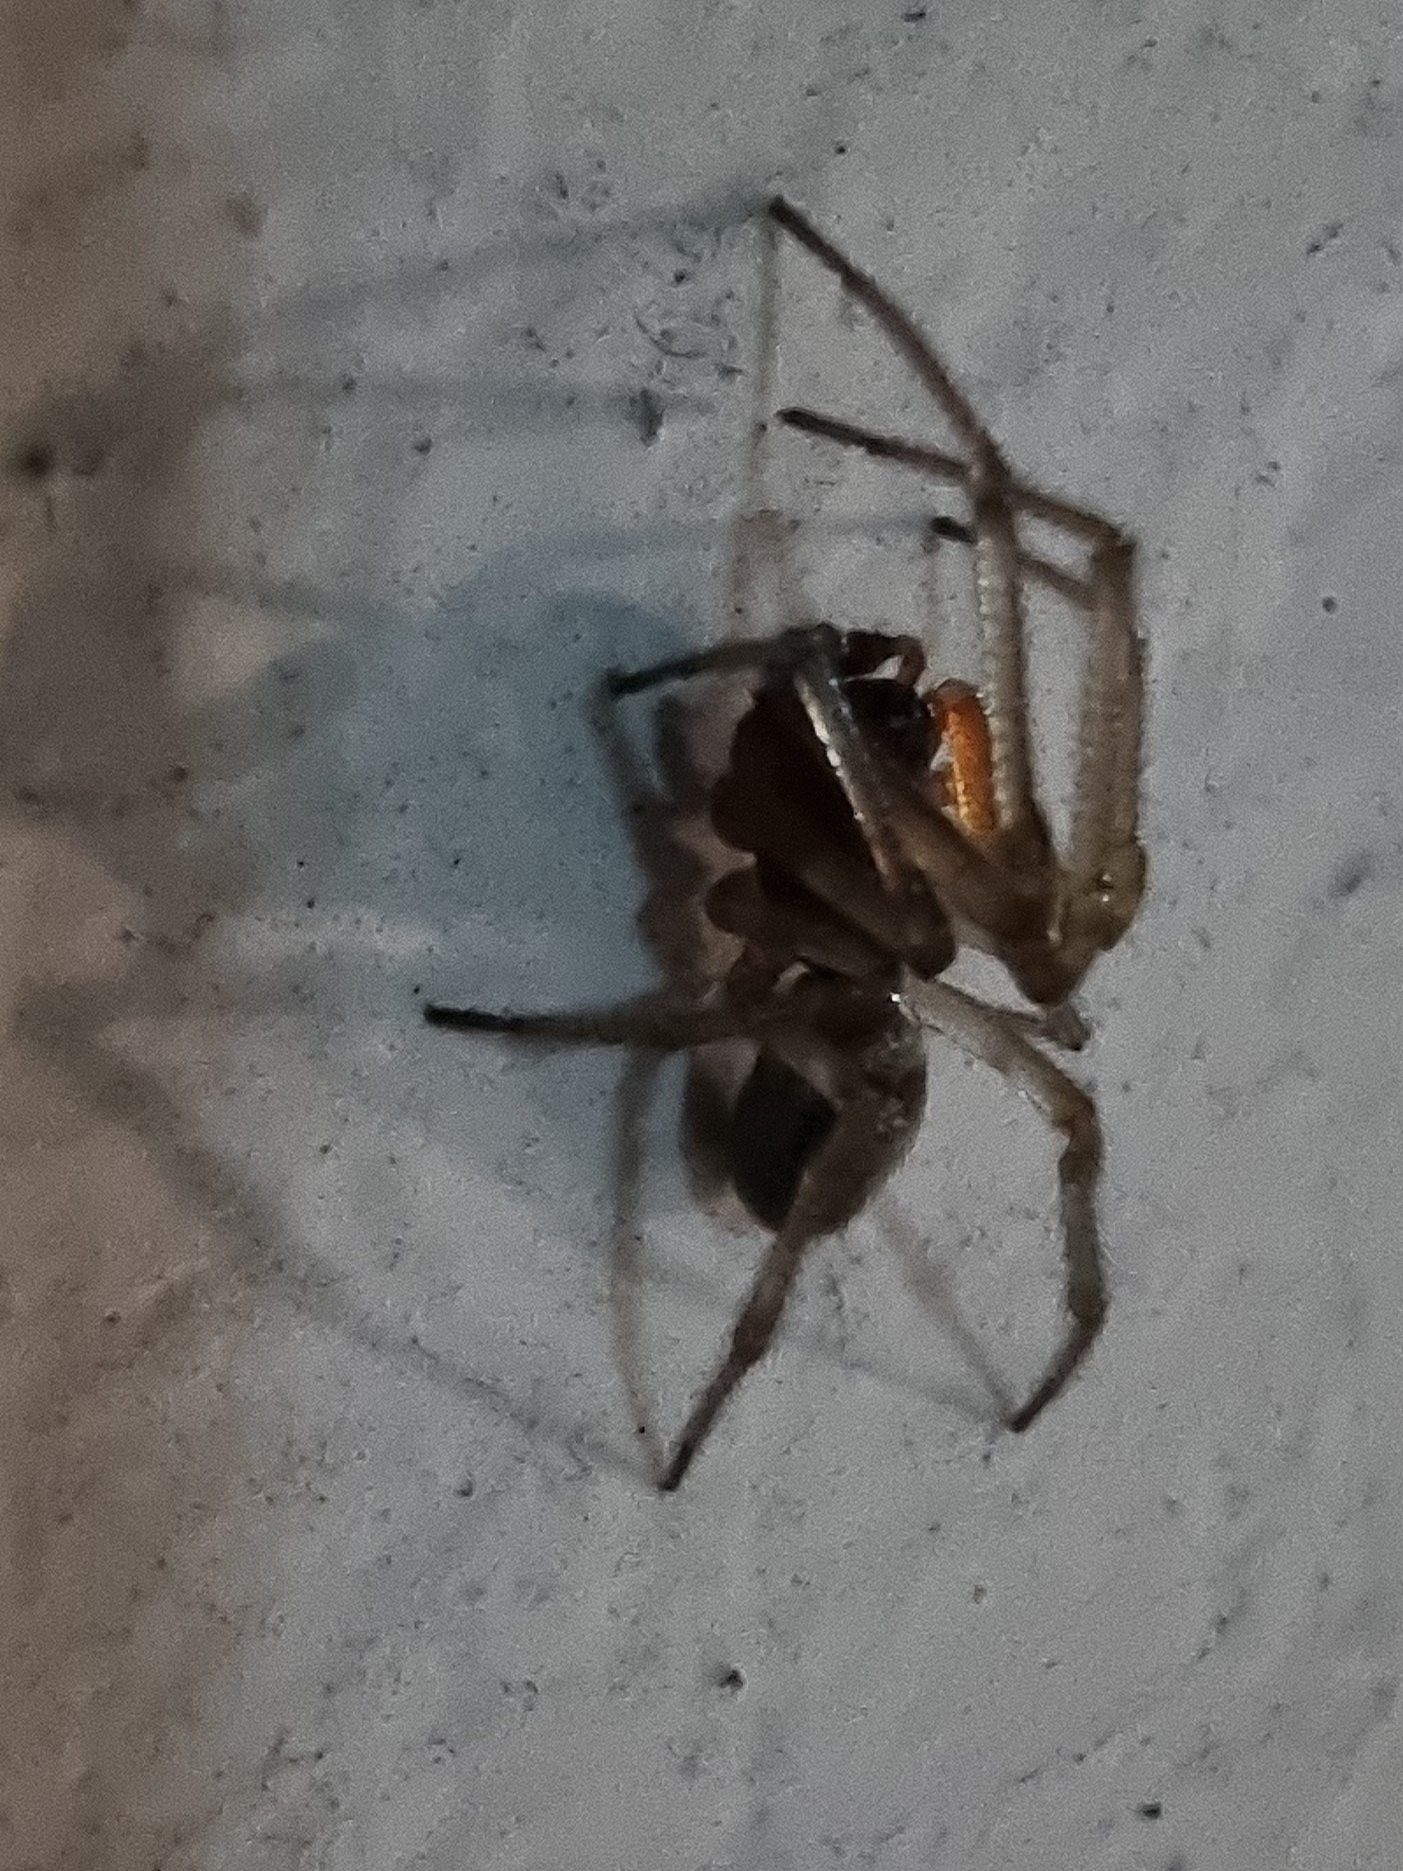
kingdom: Animalia
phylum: Arthropoda
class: Arachnida
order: Araneae
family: Theridiidae
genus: Steatoda
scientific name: Steatoda nobilis
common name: Cobweb weaver
